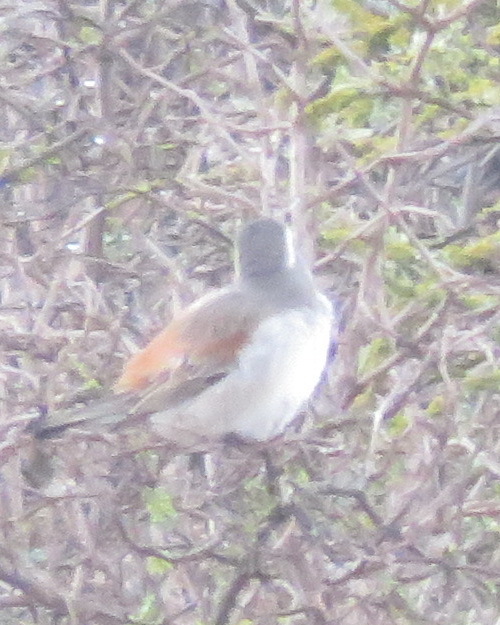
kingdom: Animalia
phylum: Chordata
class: Aves
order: Passeriformes
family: Passeridae
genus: Passer
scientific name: Passer melanurus
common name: Cape sparrow
